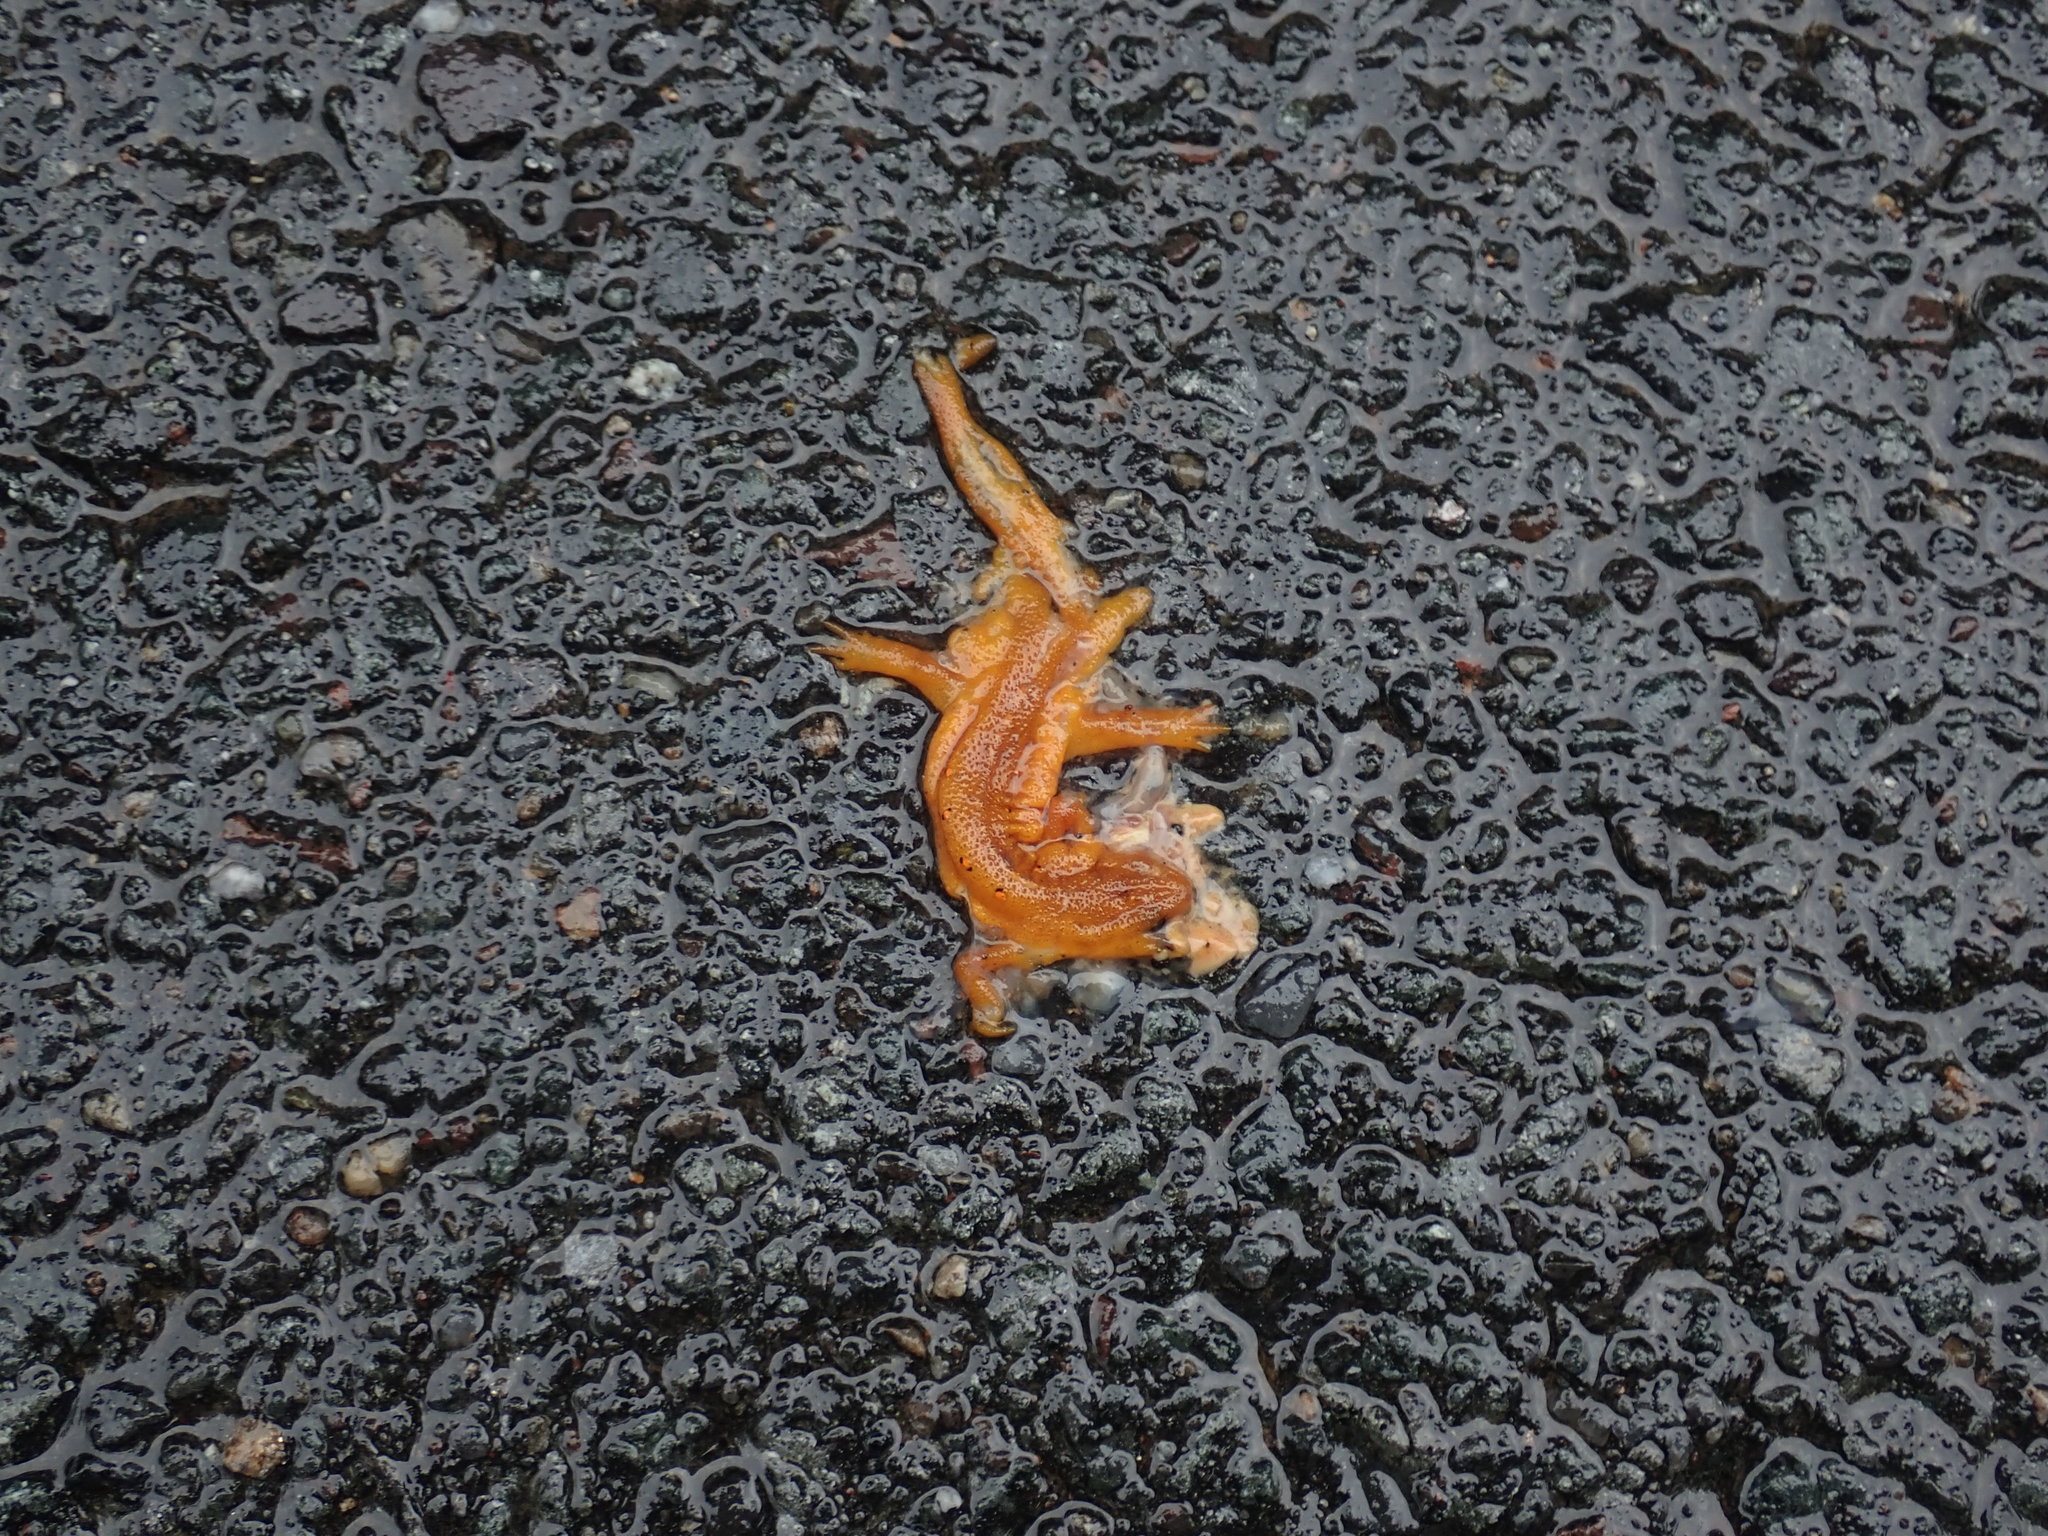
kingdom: Animalia
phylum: Chordata
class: Amphibia
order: Caudata
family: Salamandridae
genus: Notophthalmus
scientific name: Notophthalmus viridescens
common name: Eastern newt
